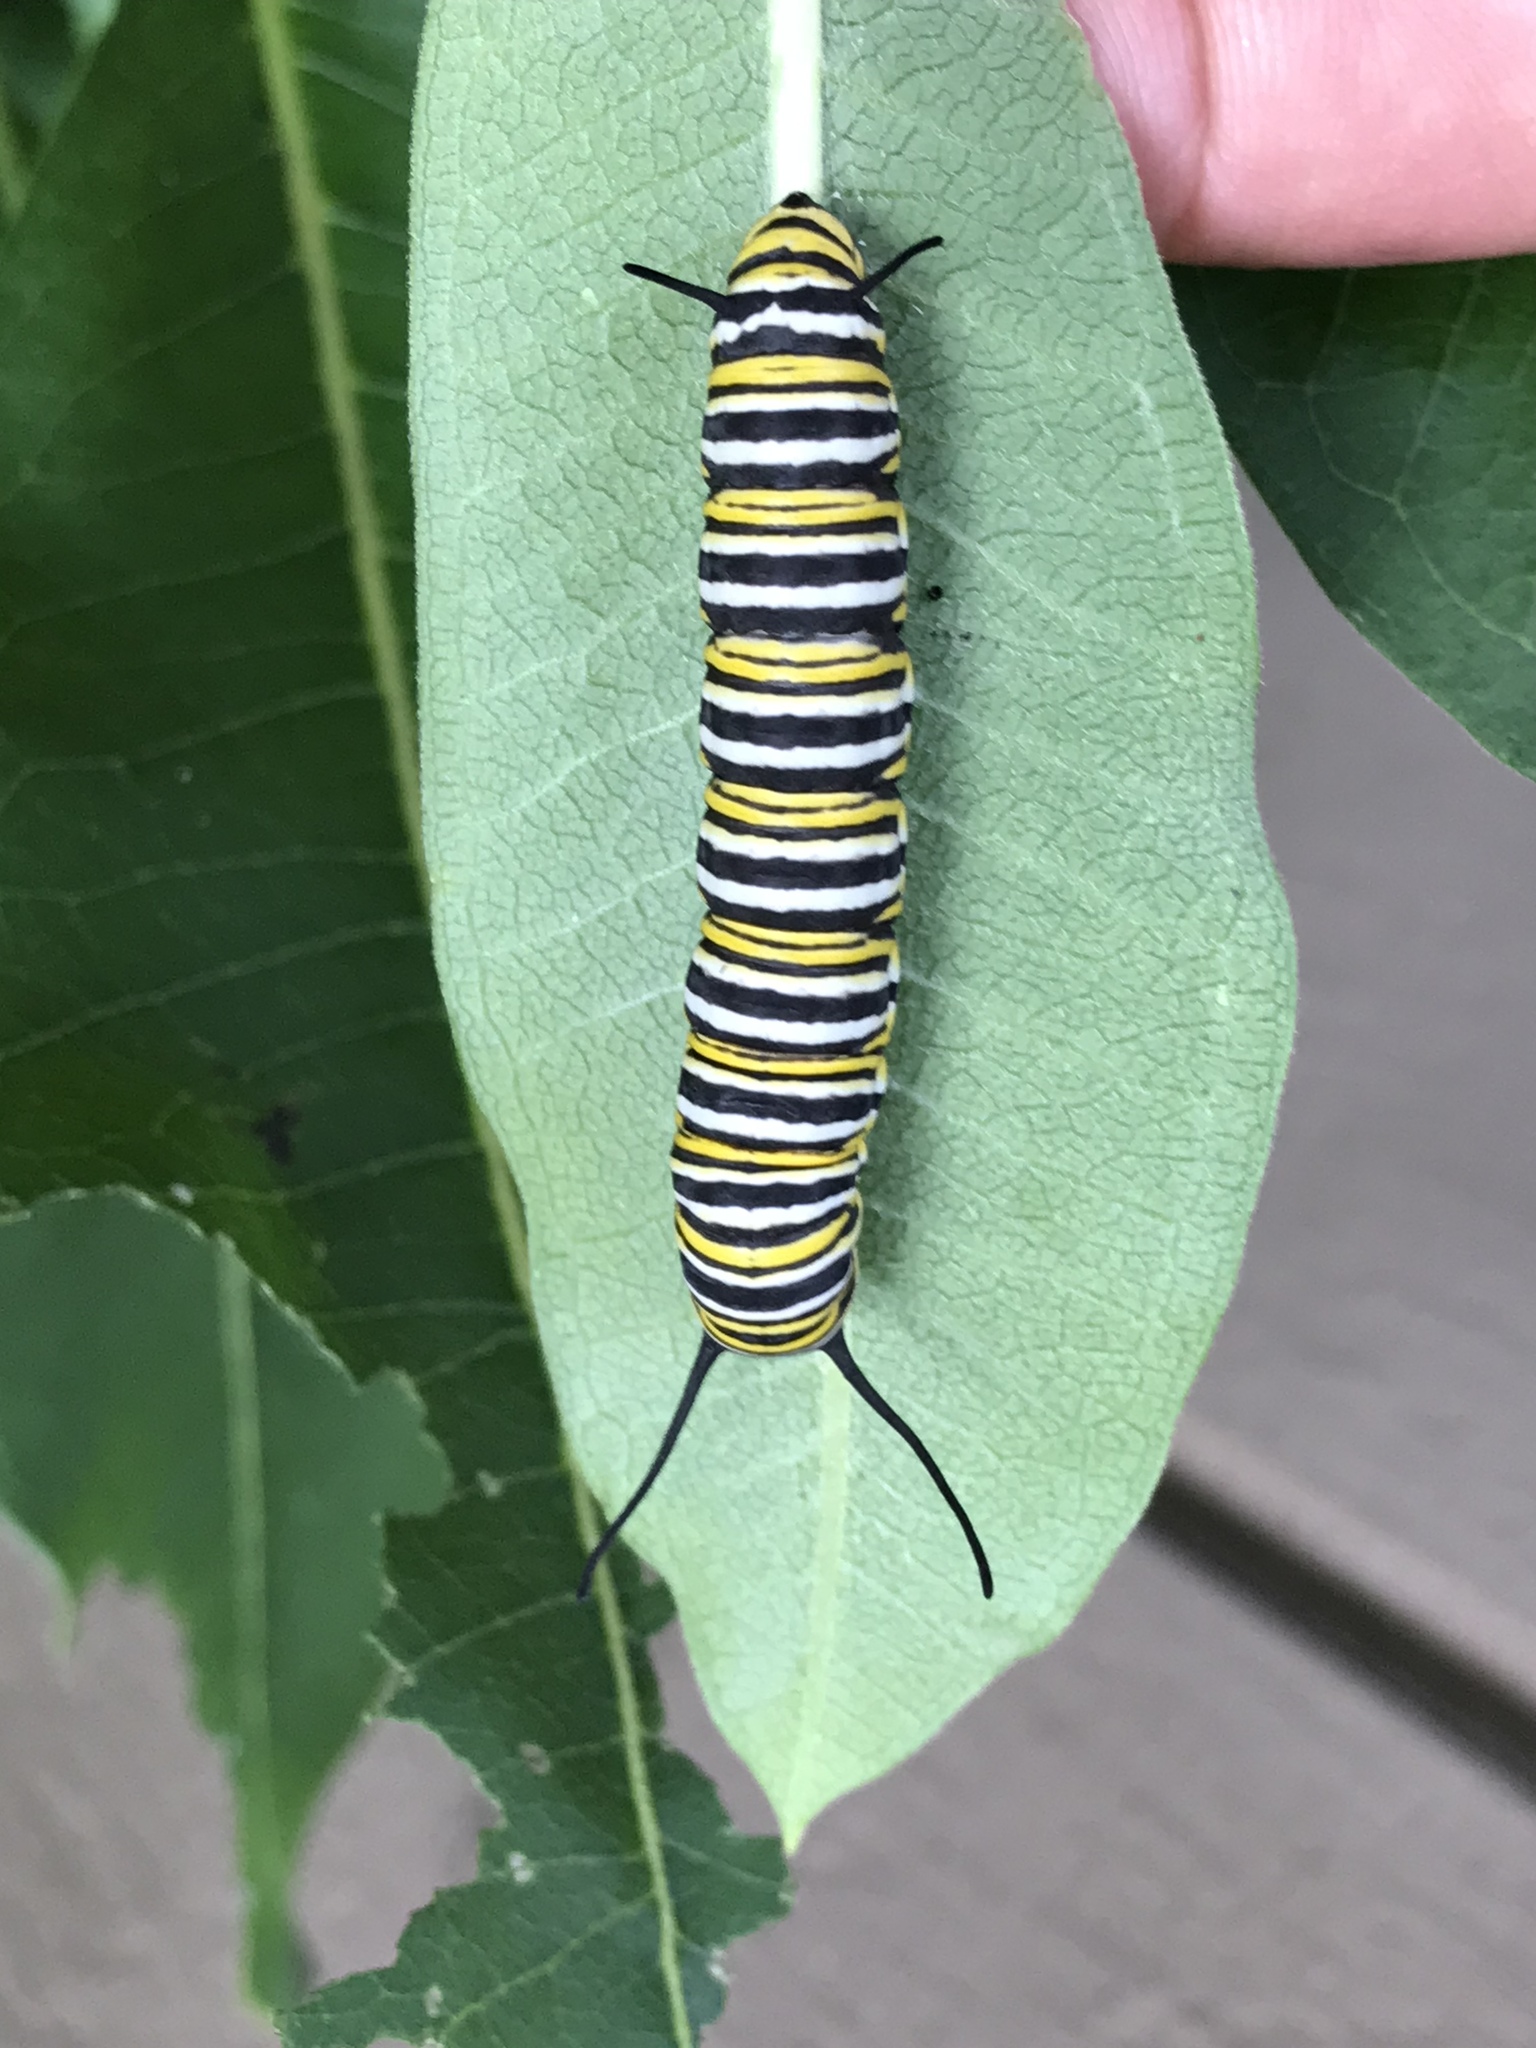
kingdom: Animalia
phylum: Arthropoda
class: Insecta
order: Lepidoptera
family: Nymphalidae
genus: Danaus
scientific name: Danaus plexippus
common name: Monarch
